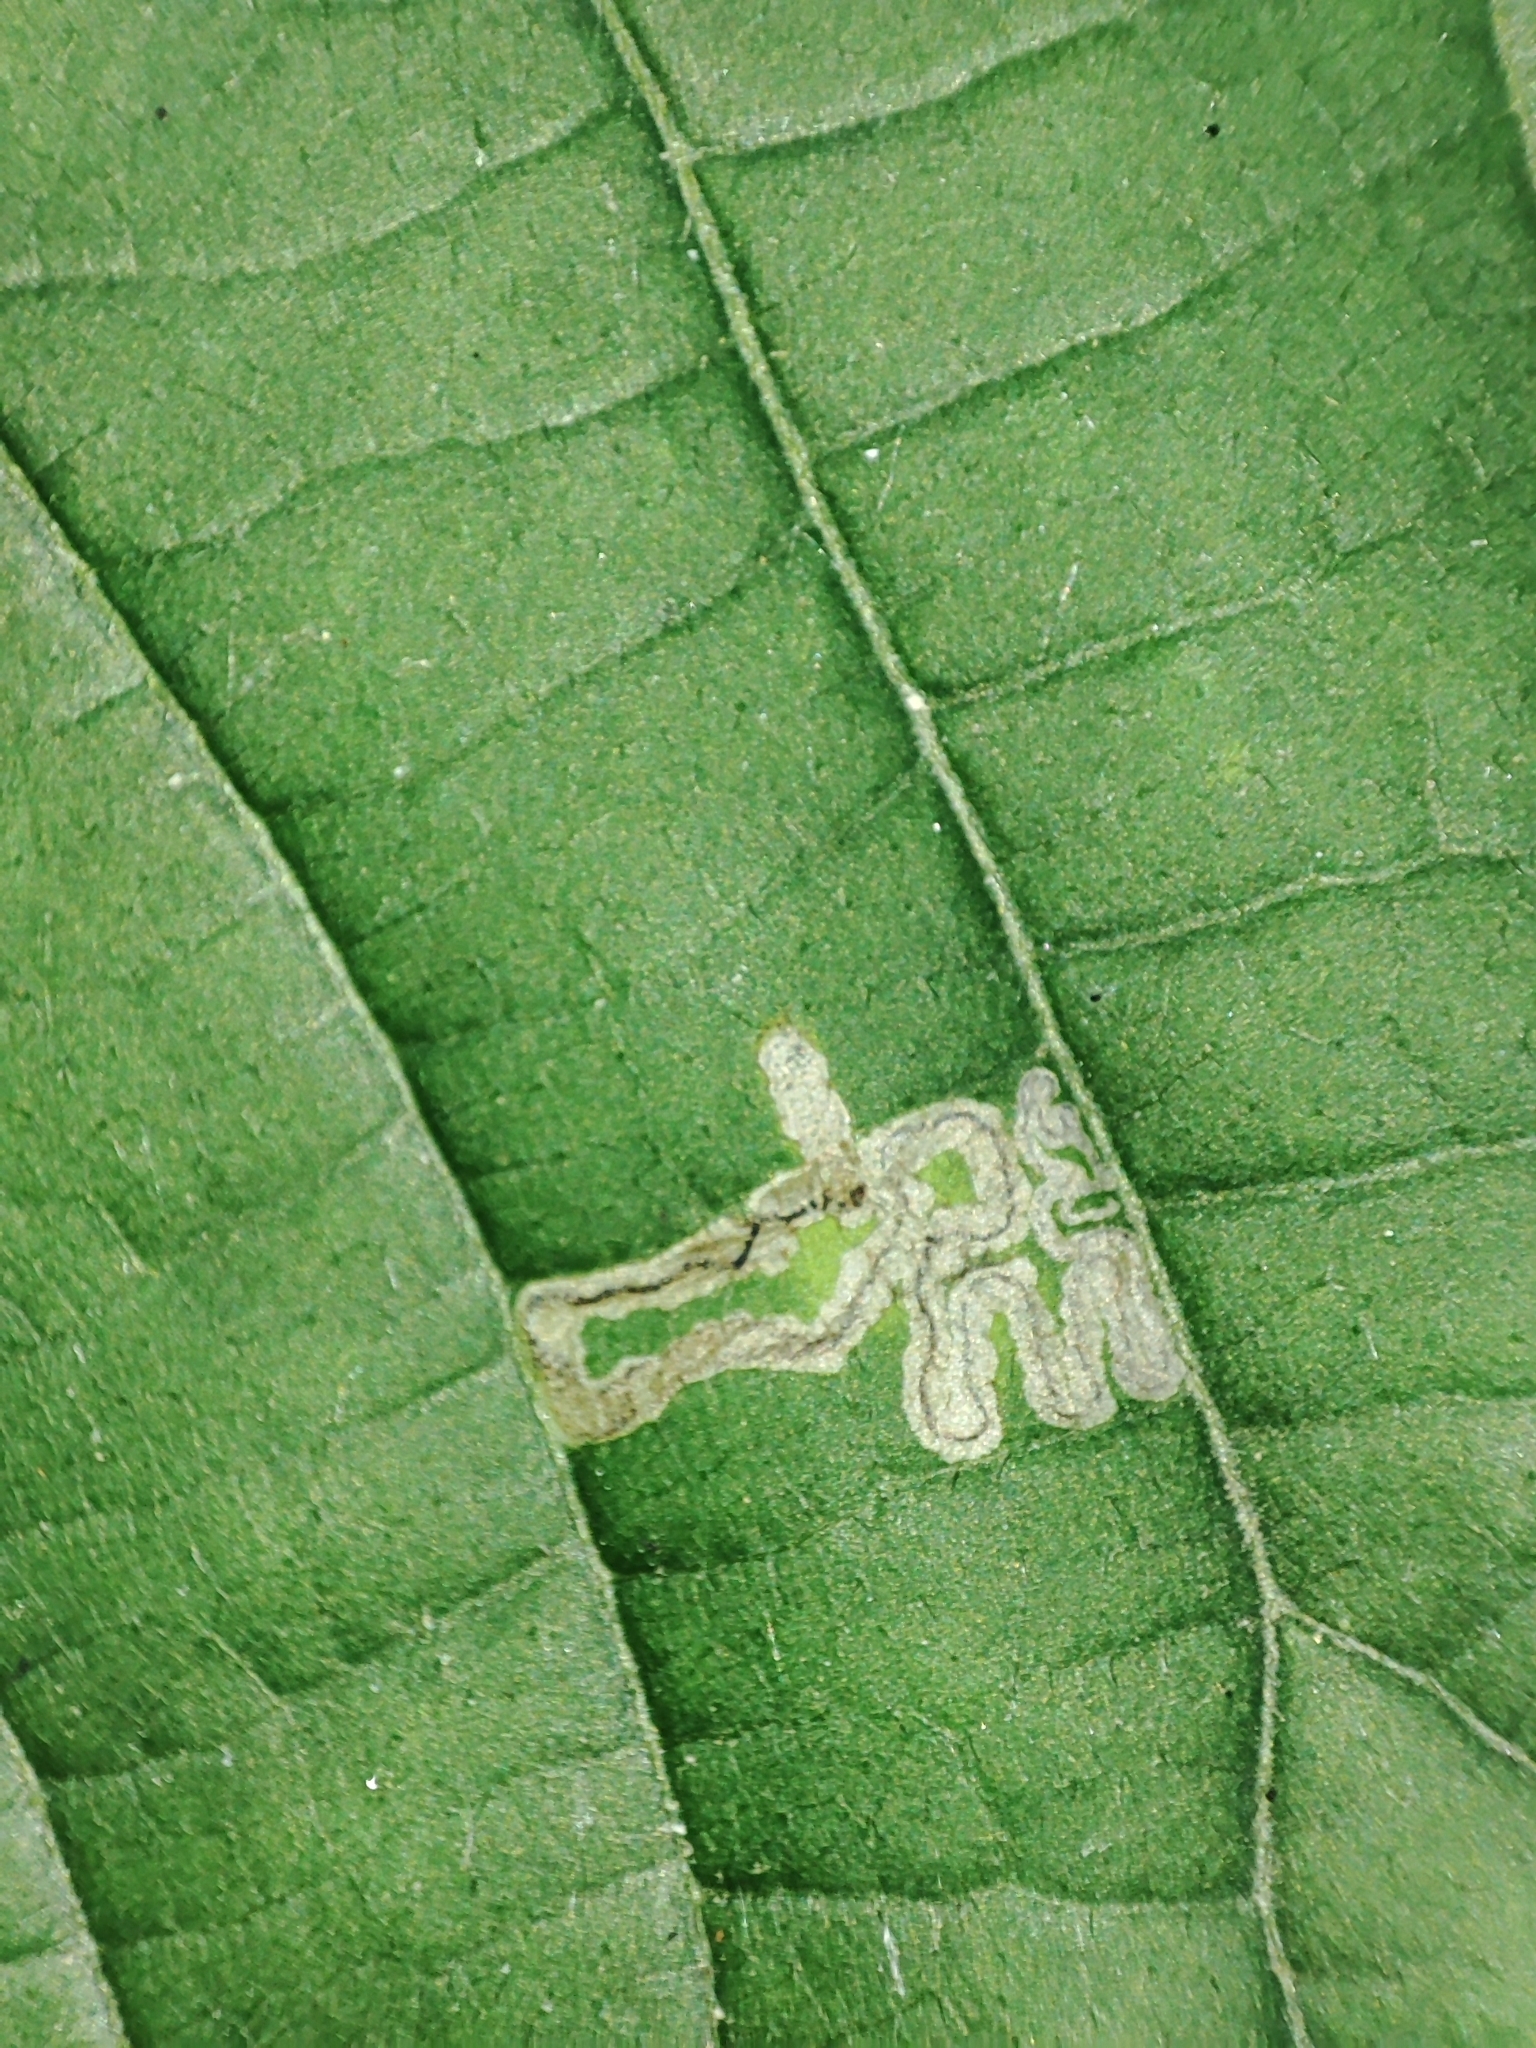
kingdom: Animalia
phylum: Arthropoda
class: Insecta
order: Lepidoptera
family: Nepticulidae
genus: Stigmella
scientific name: Stigmella tiliae
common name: Lime pigmy
